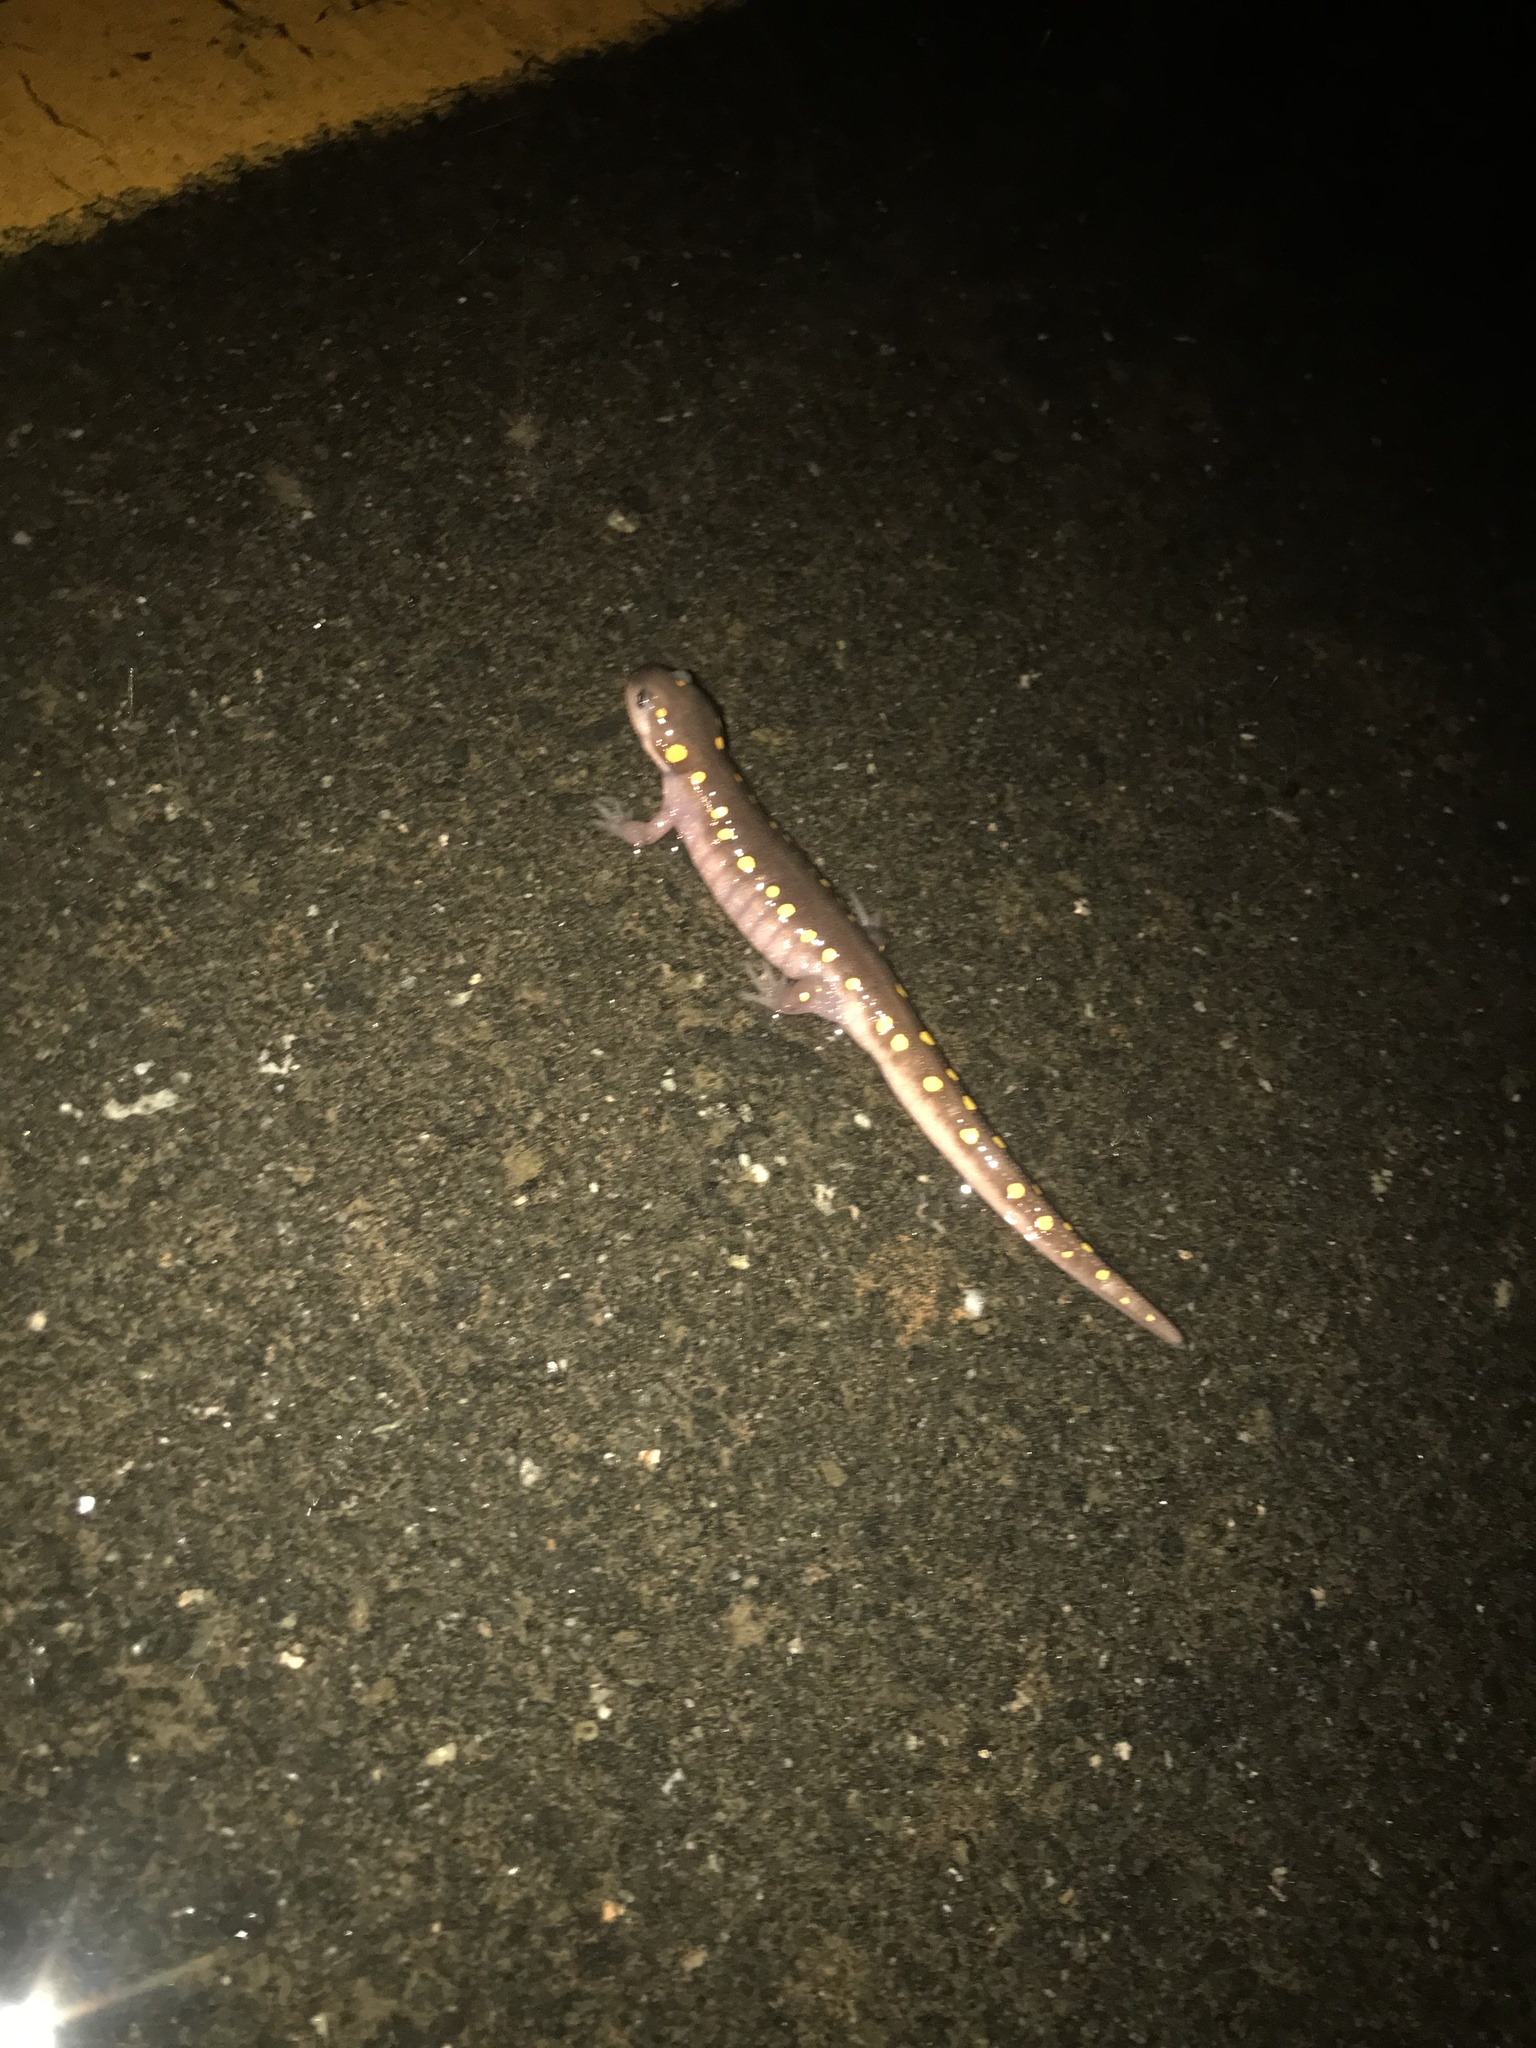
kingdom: Animalia
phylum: Chordata
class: Amphibia
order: Caudata
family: Ambystomatidae
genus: Ambystoma
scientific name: Ambystoma maculatum
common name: Spotted salamander
